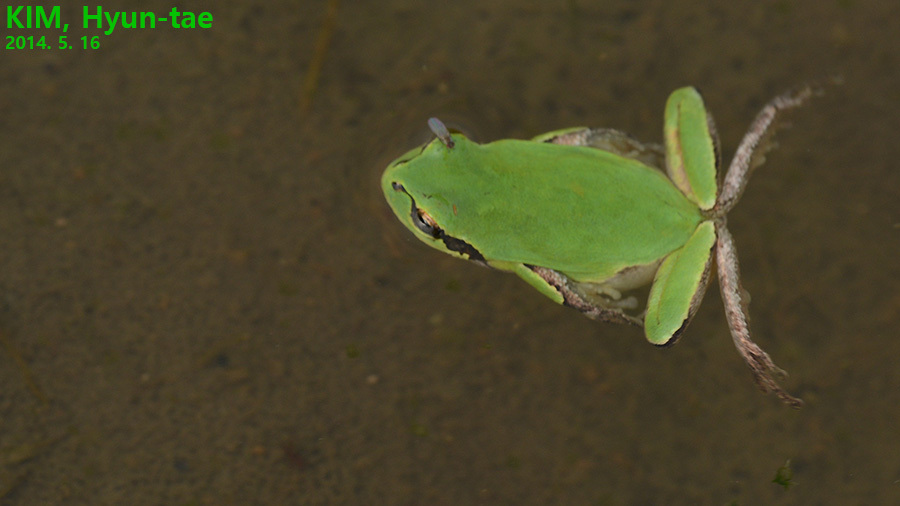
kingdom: Animalia
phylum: Chordata
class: Amphibia
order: Anura
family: Hylidae
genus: Hyla
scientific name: Hyla
